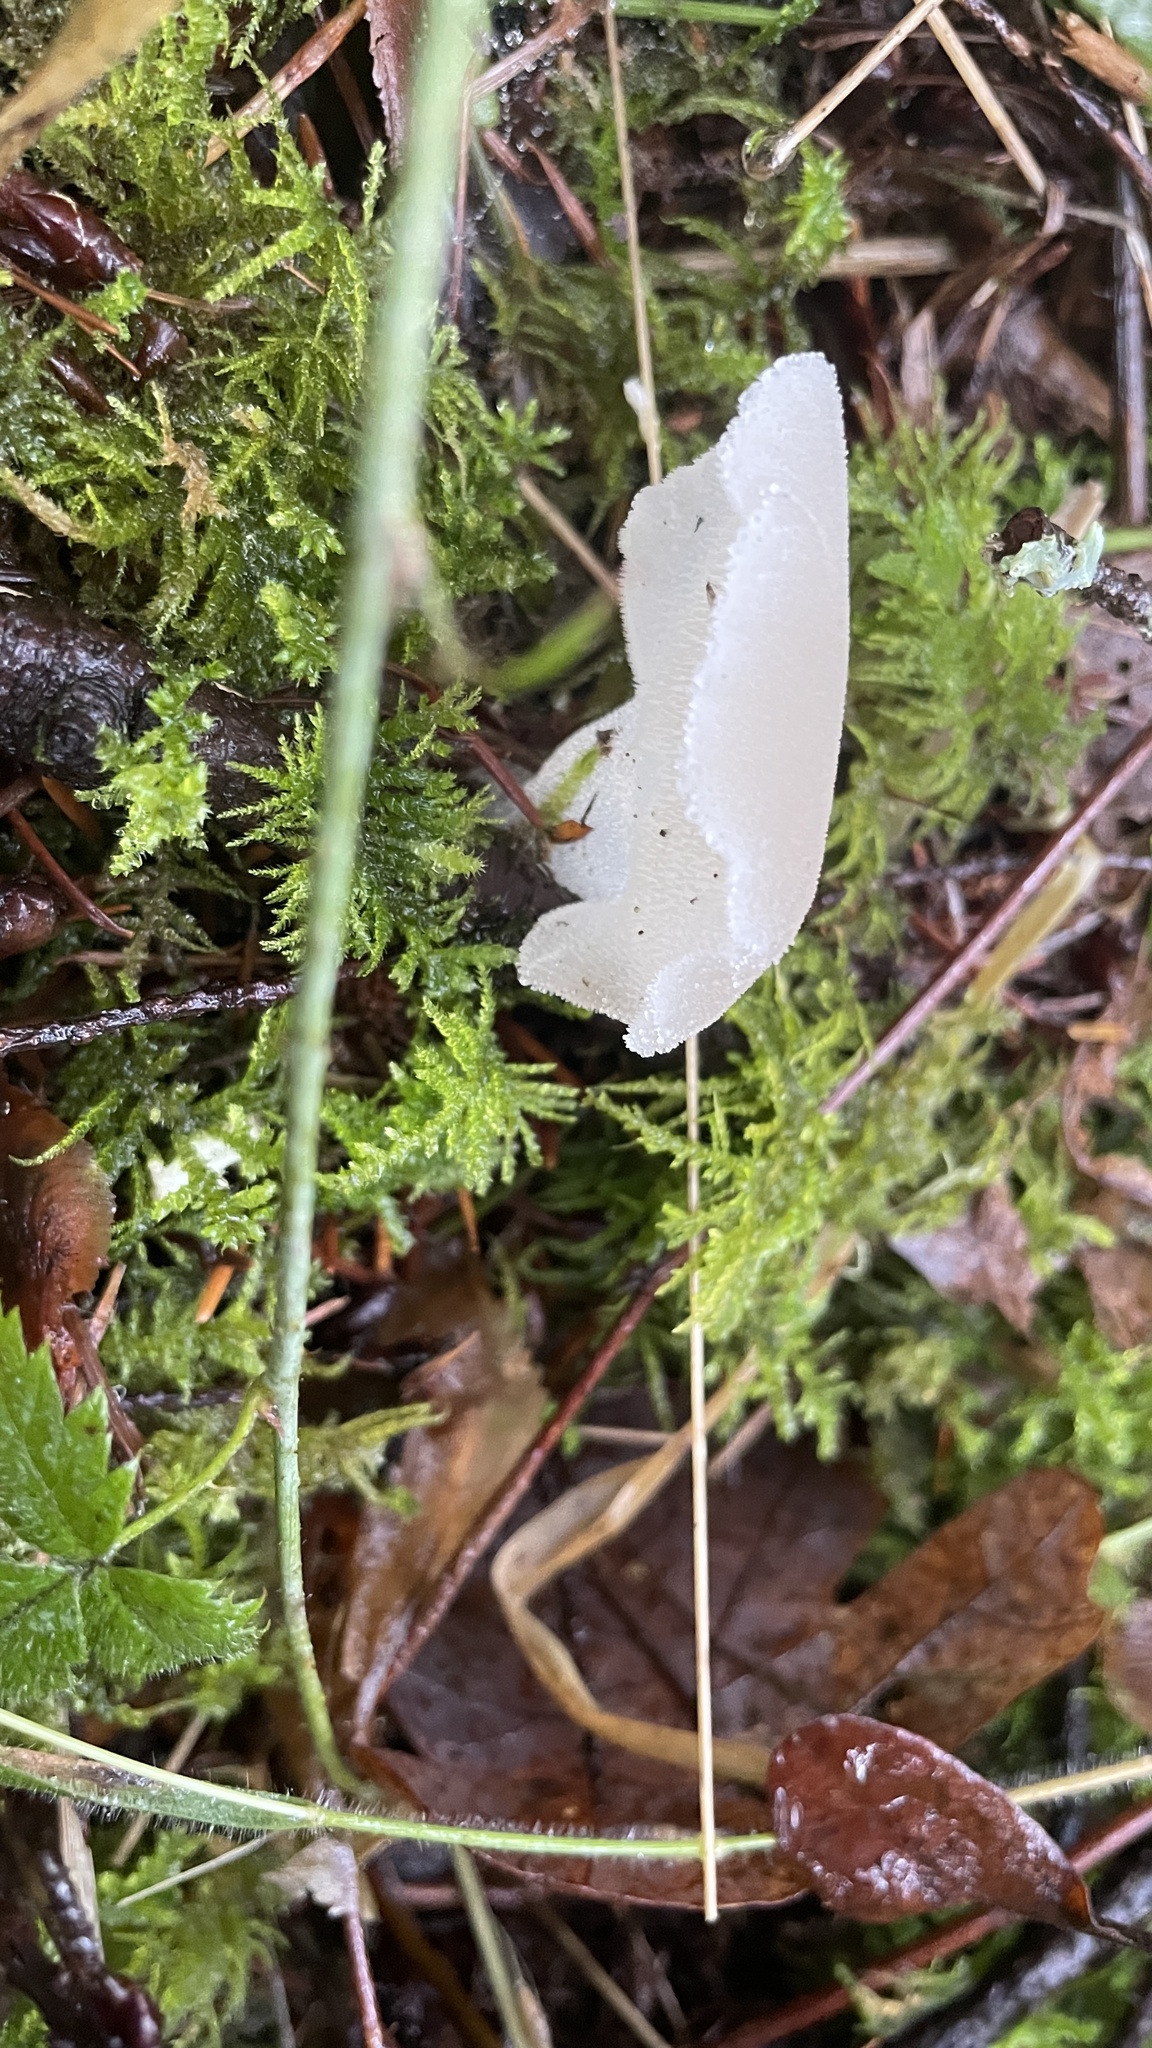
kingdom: Fungi
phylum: Basidiomycota
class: Agaricomycetes
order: Auriculariales
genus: Pseudohydnum
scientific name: Pseudohydnum gelatinosum
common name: Jelly tongue
